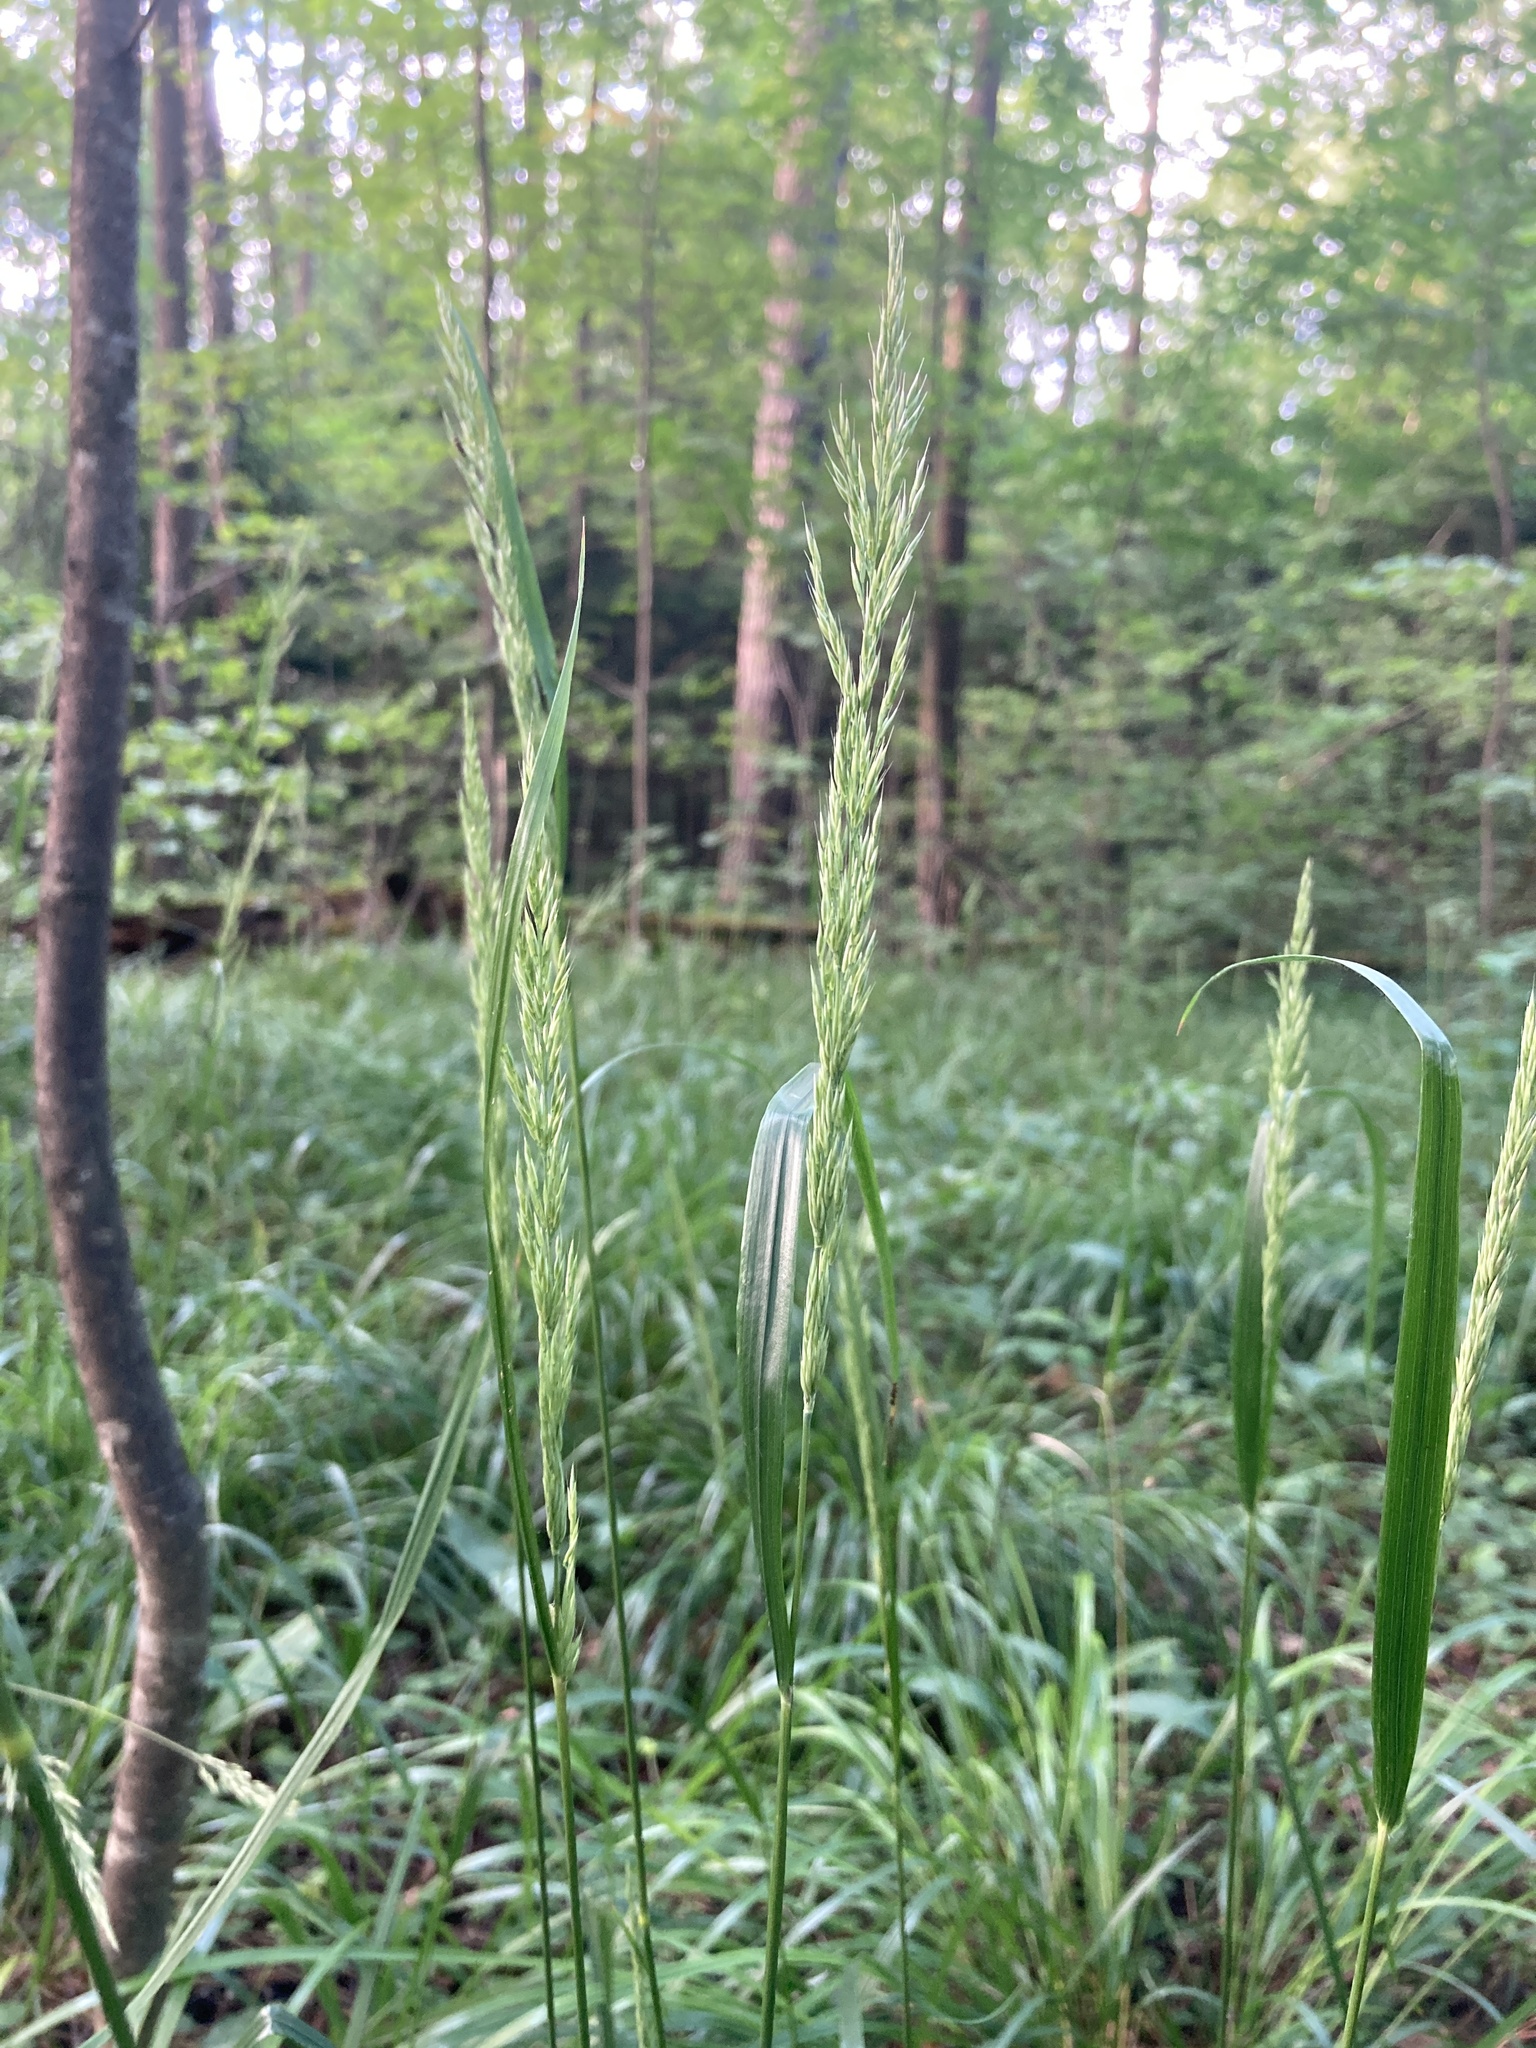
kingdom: Plantae
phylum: Tracheophyta
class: Liliopsida
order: Poales
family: Poaceae
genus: Calamagrostis
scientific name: Calamagrostis arundinacea
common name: Metskastik
